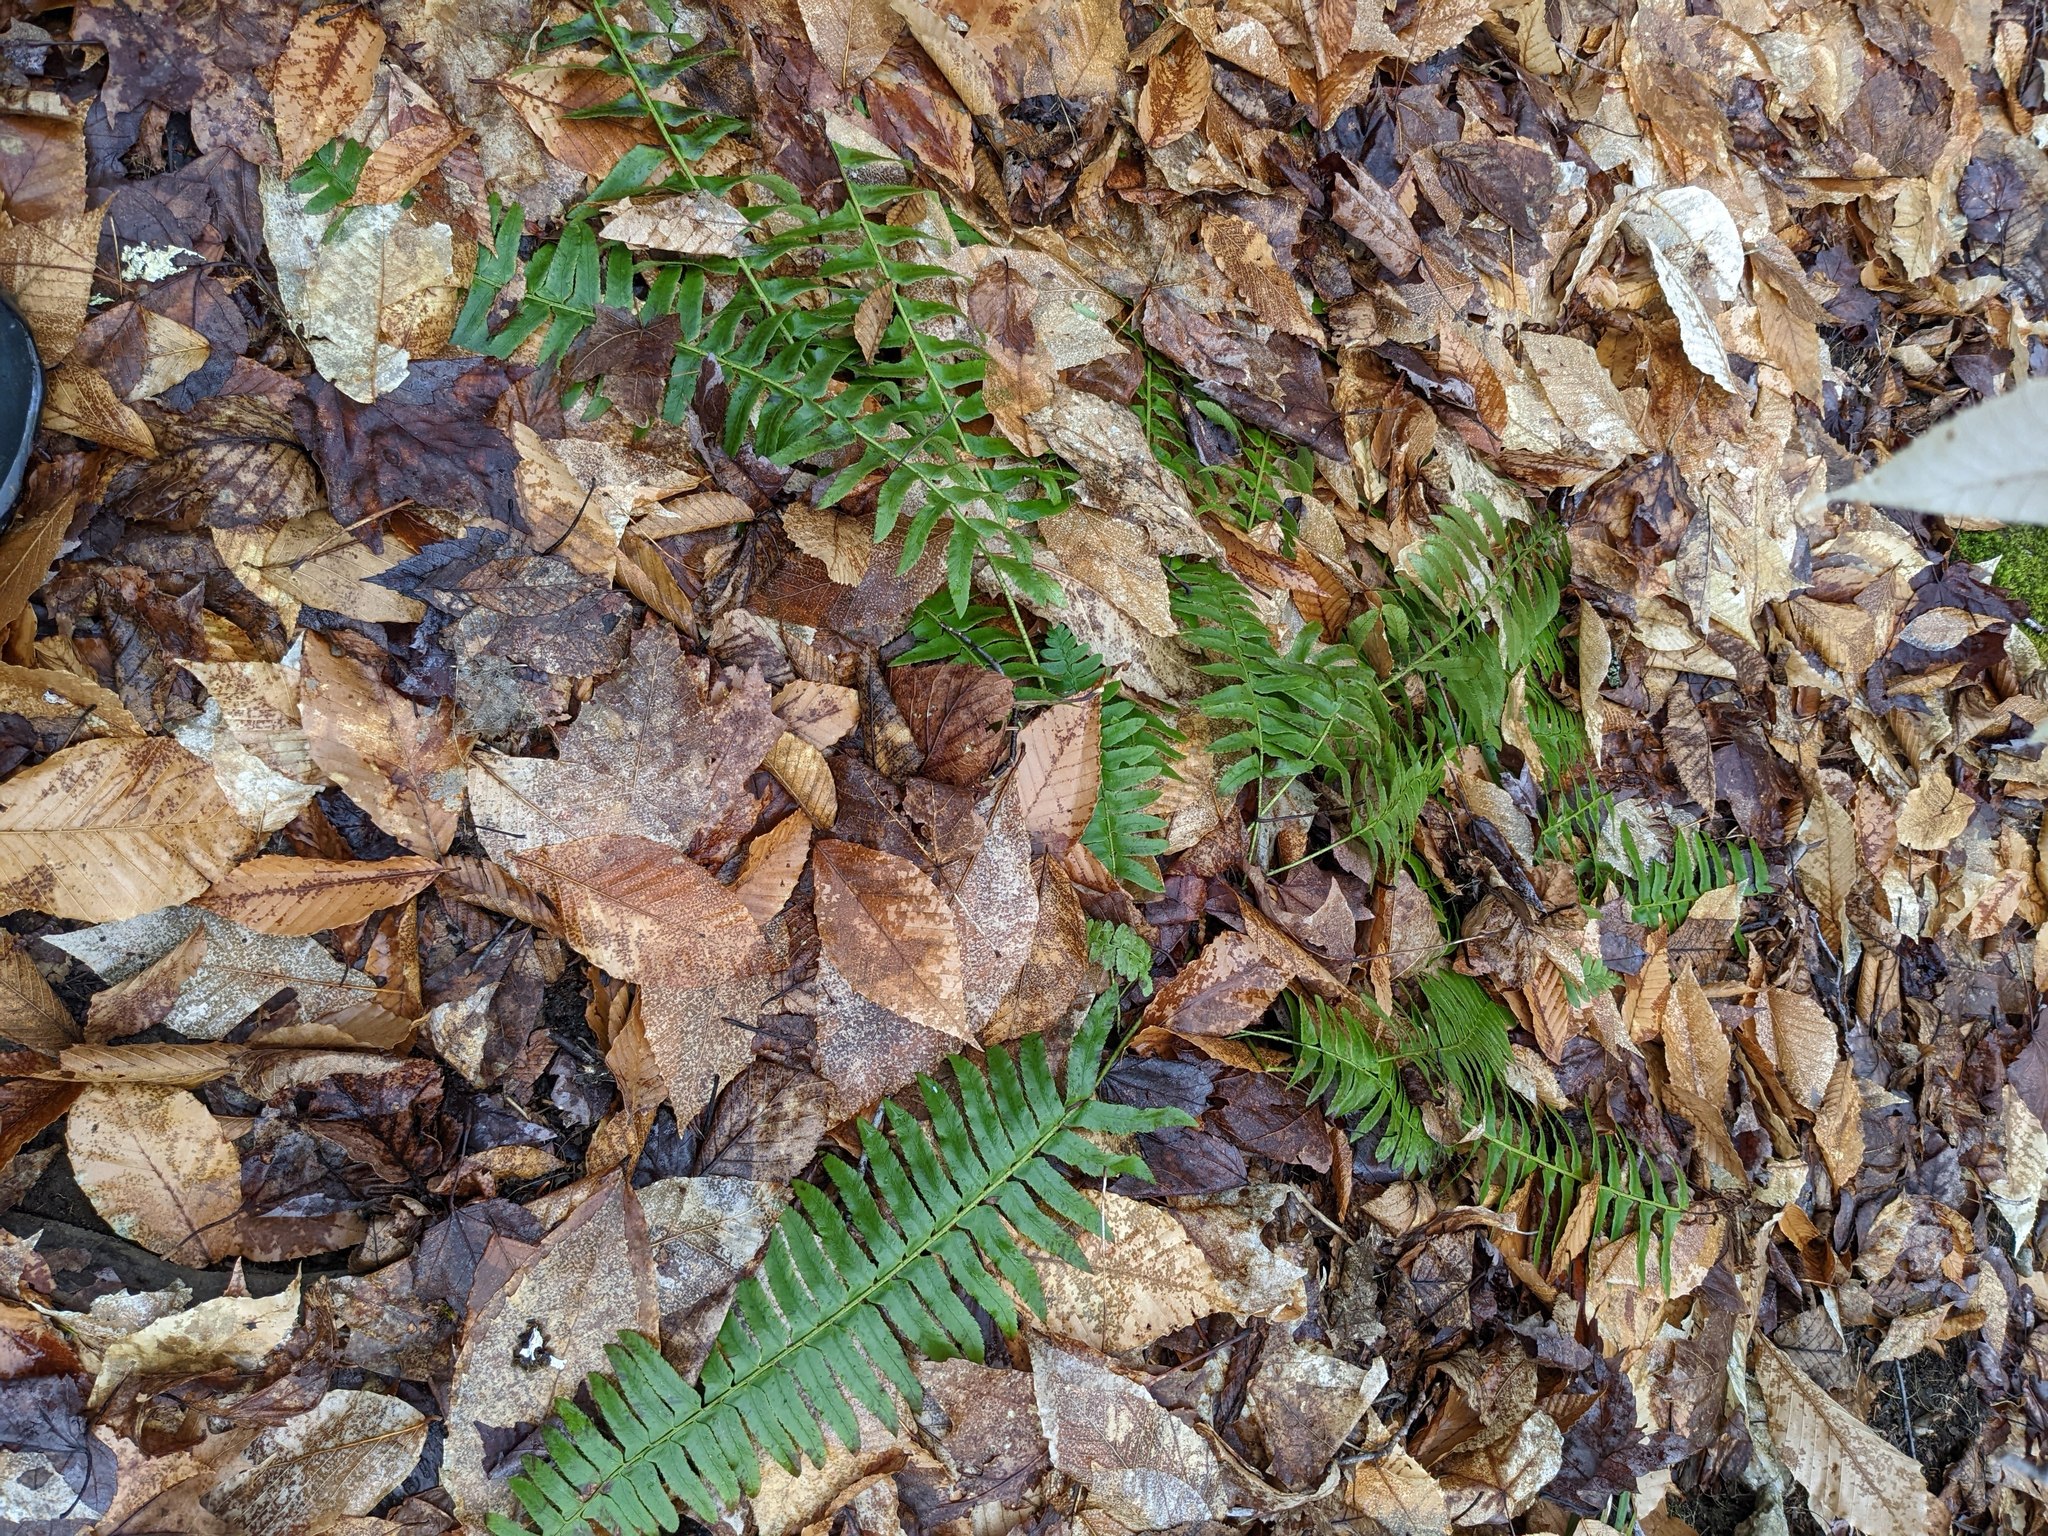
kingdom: Plantae
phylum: Tracheophyta
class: Magnoliopsida
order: Fagales
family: Fagaceae
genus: Fagus
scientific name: Fagus grandifolia
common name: American beech
